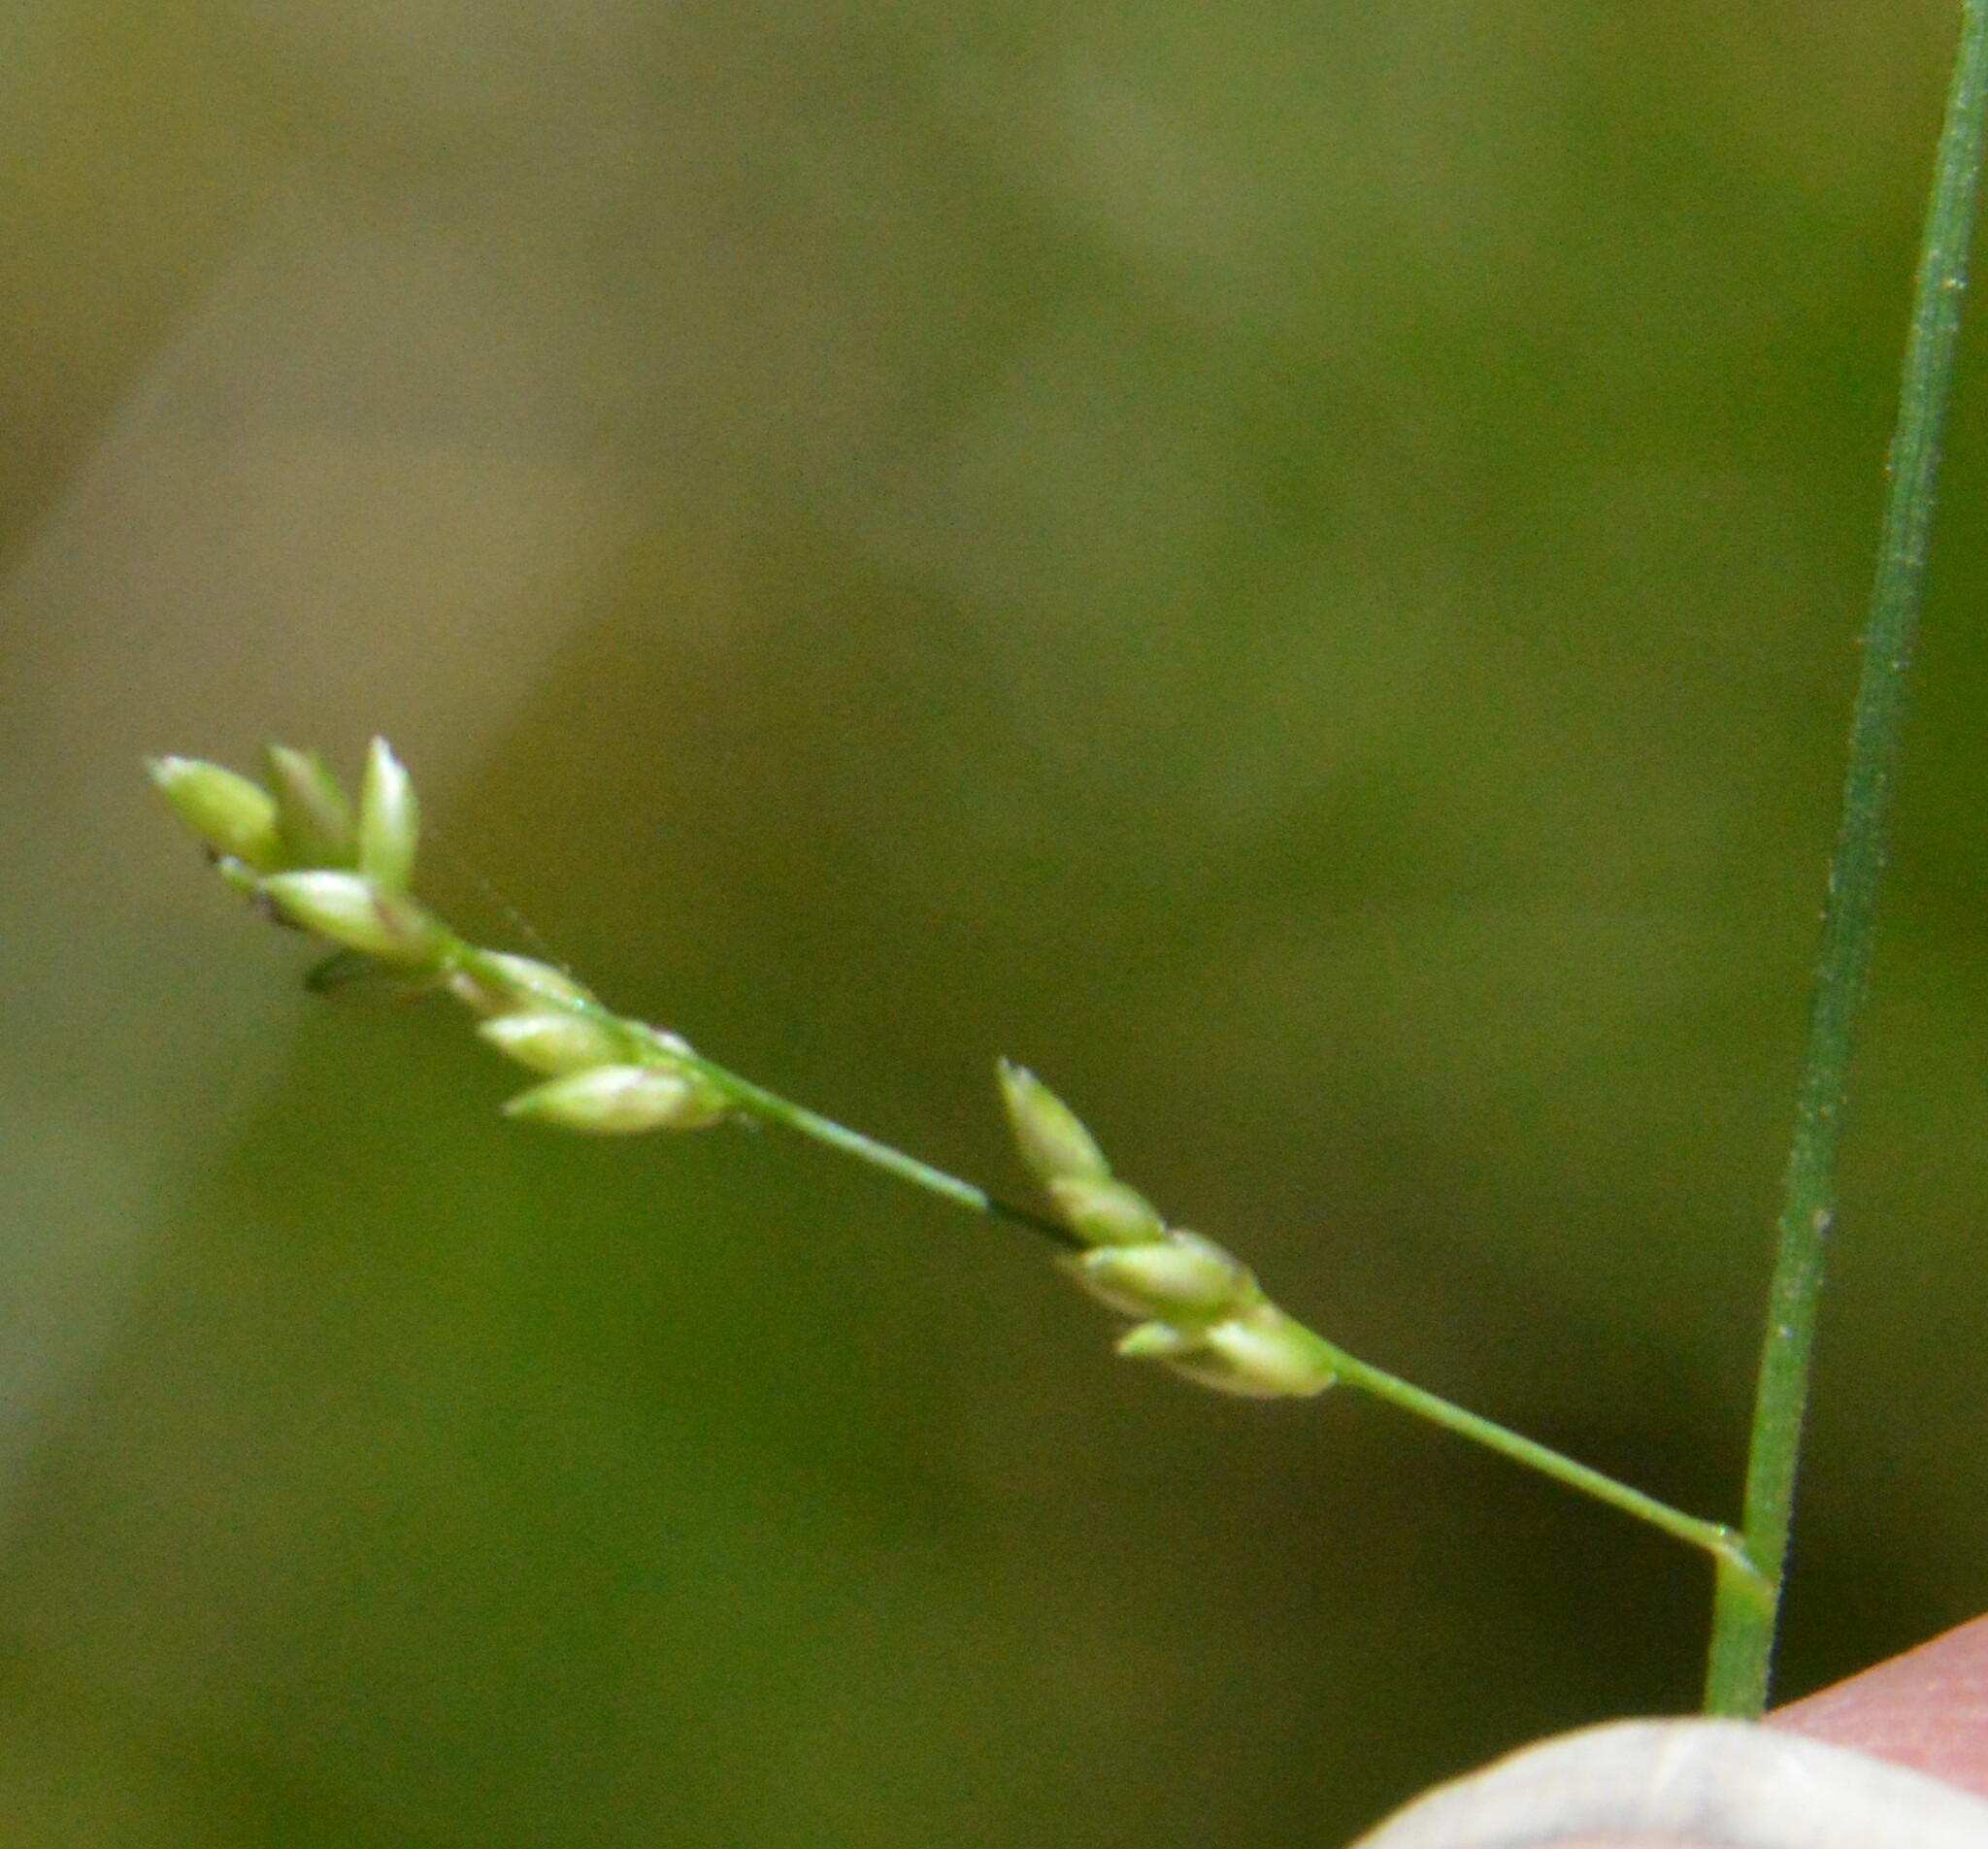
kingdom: Plantae
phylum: Tracheophyta
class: Liliopsida
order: Poales
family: Poaceae
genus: Steinchisma
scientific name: Steinchisma hians
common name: Gaping panic grass
